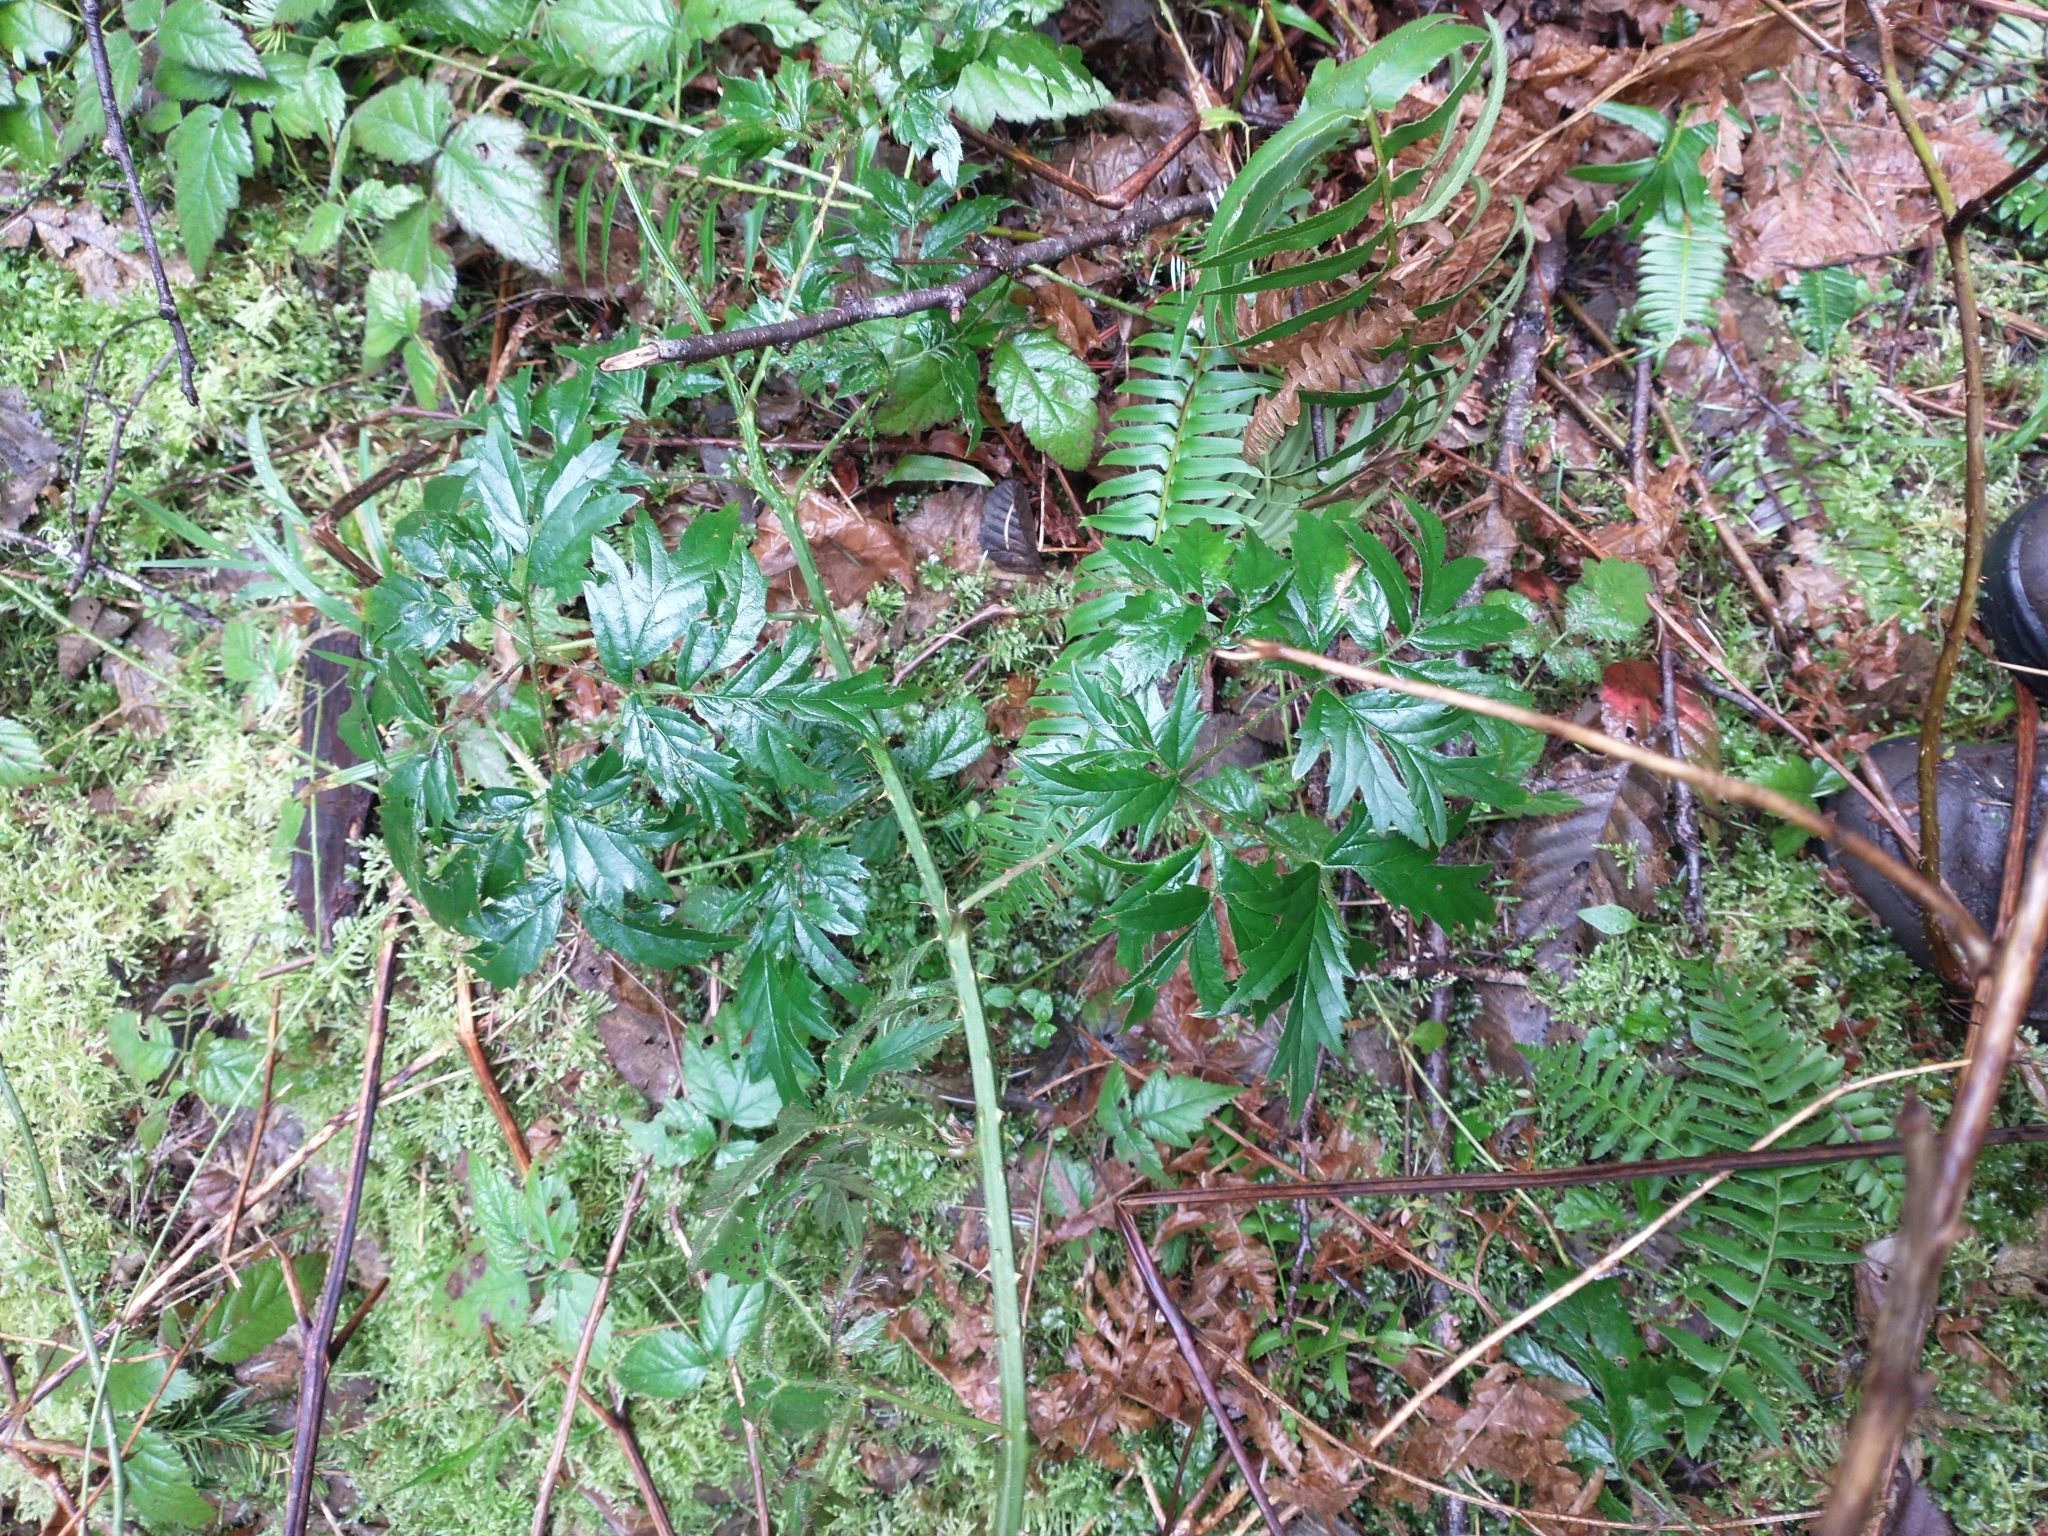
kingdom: Plantae
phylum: Tracheophyta
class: Magnoliopsida
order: Rosales
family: Rosaceae
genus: Rubus
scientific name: Rubus laciniatus
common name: Evergreen blackberry
